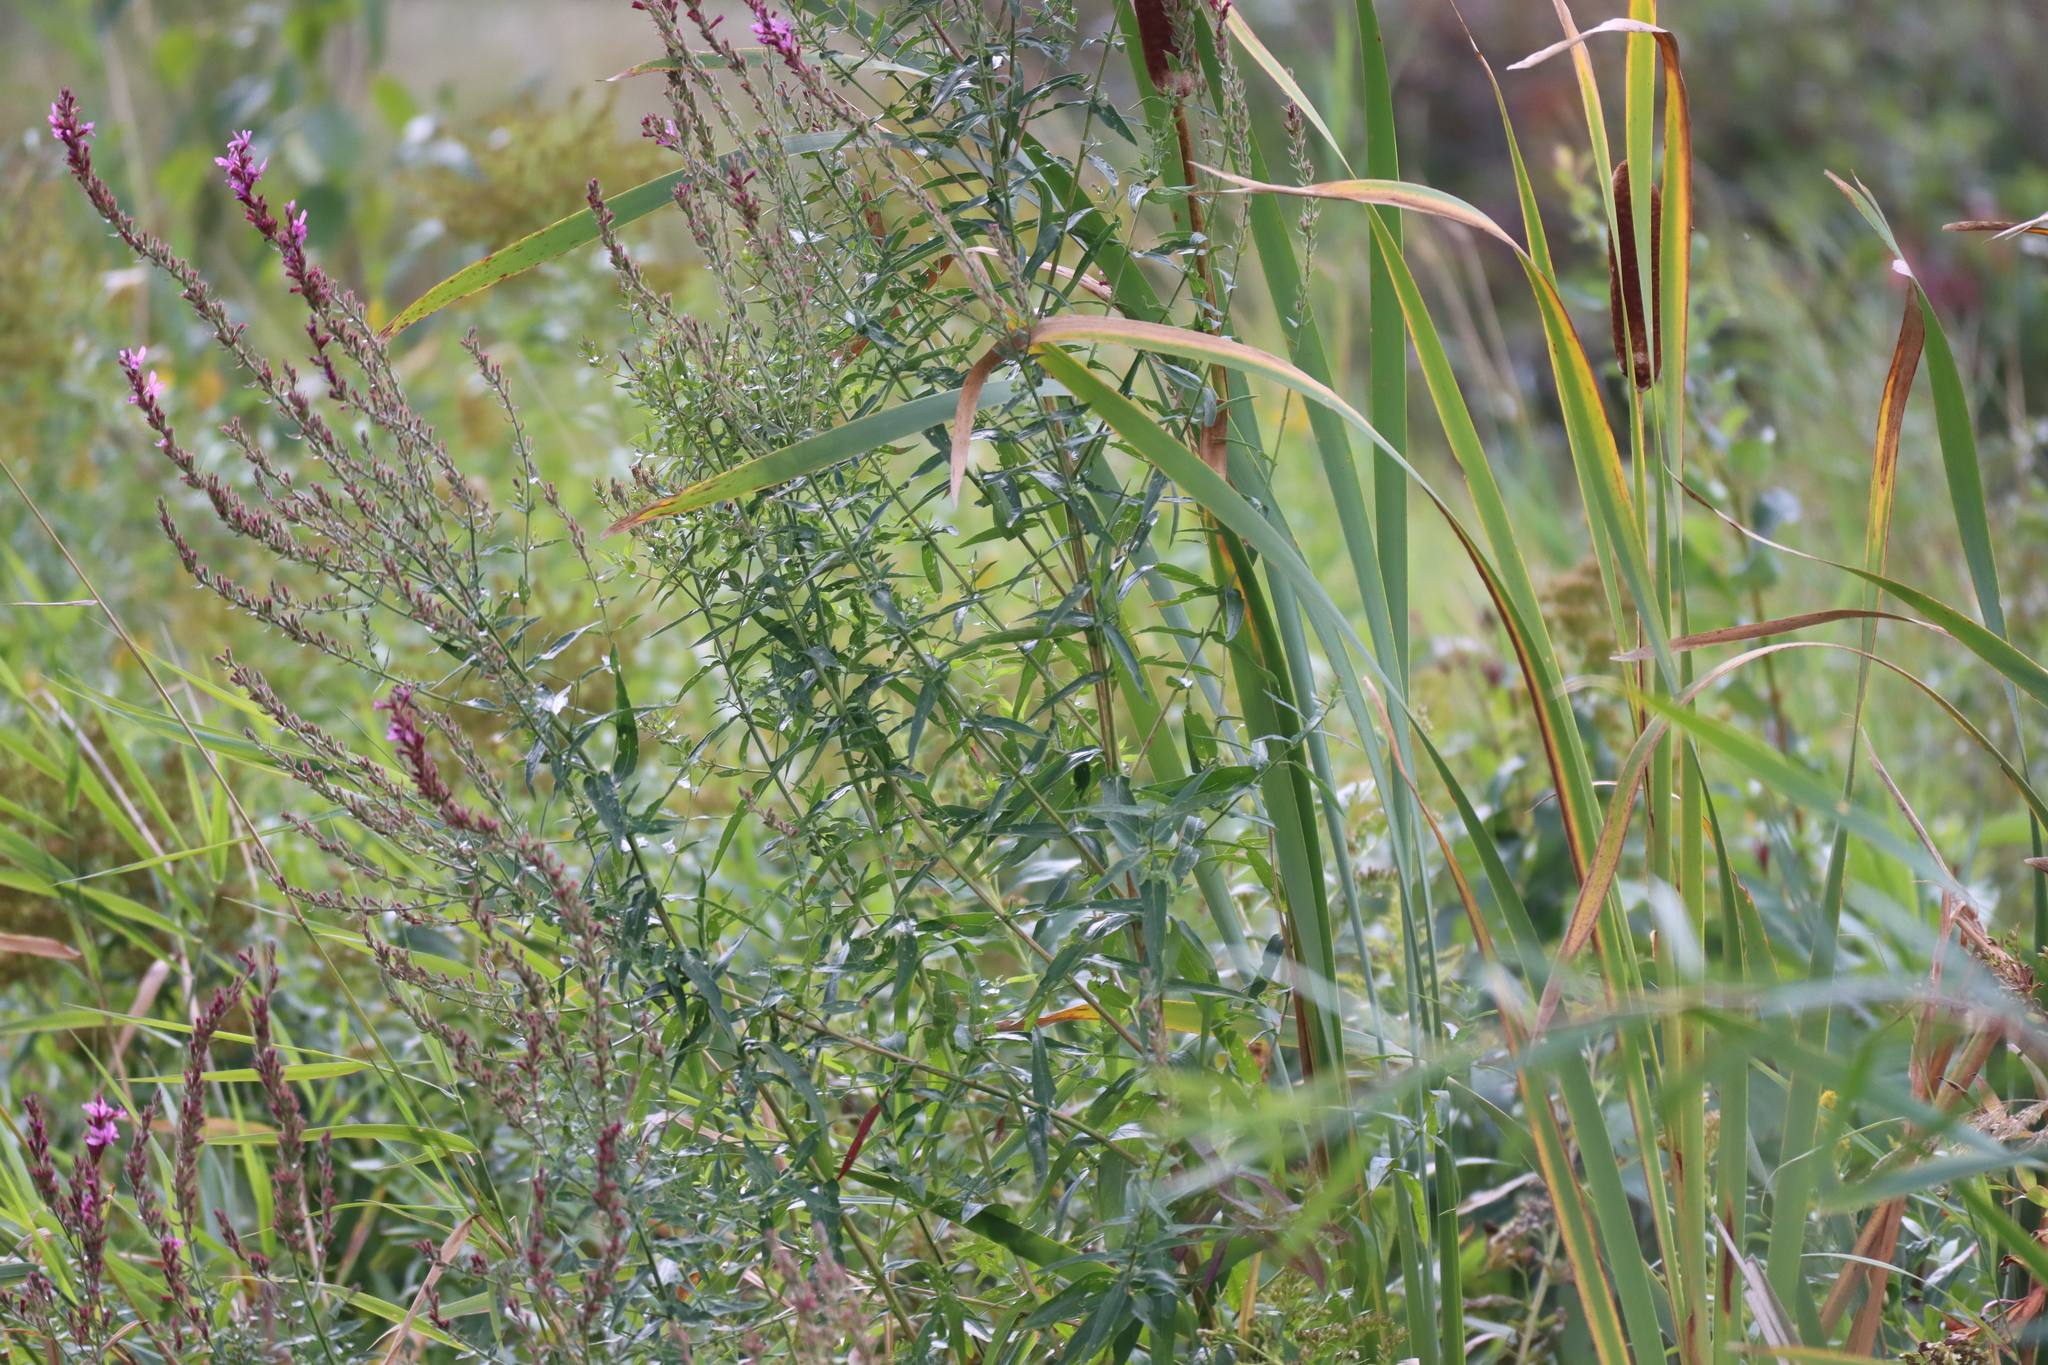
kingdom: Plantae
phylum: Tracheophyta
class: Magnoliopsida
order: Myrtales
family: Lythraceae
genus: Lythrum
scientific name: Lythrum salicaria
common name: Purple loosestrife
